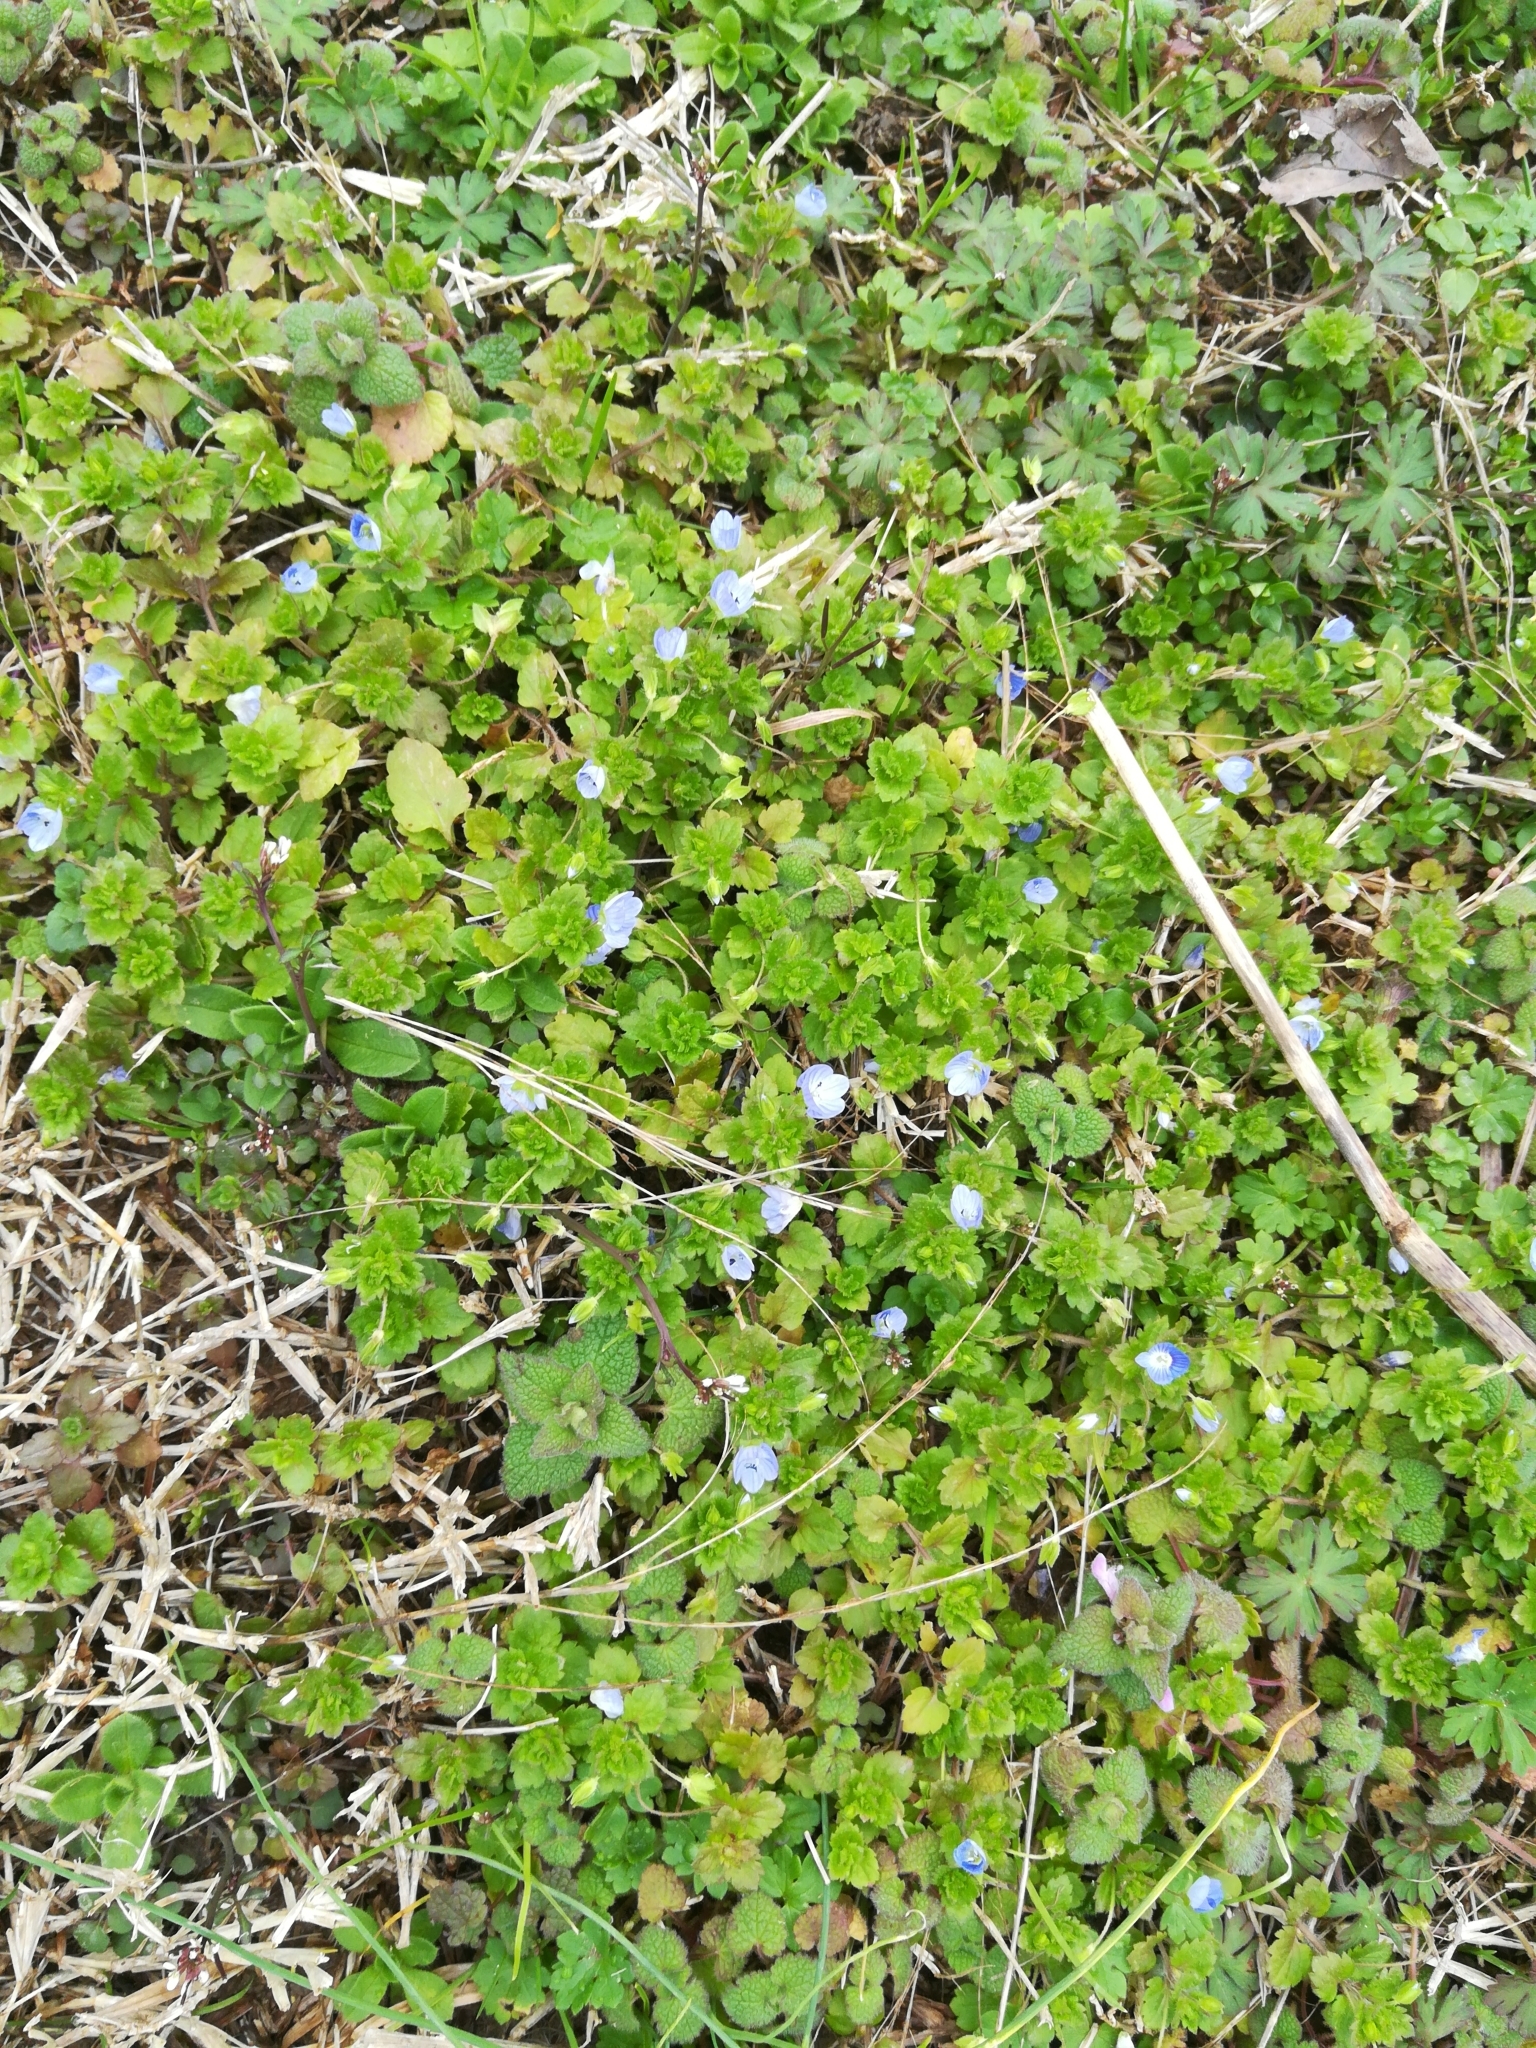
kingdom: Plantae
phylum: Tracheophyta
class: Magnoliopsida
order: Lamiales
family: Plantaginaceae
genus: Veronica
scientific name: Veronica persica
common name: Common field-speedwell
